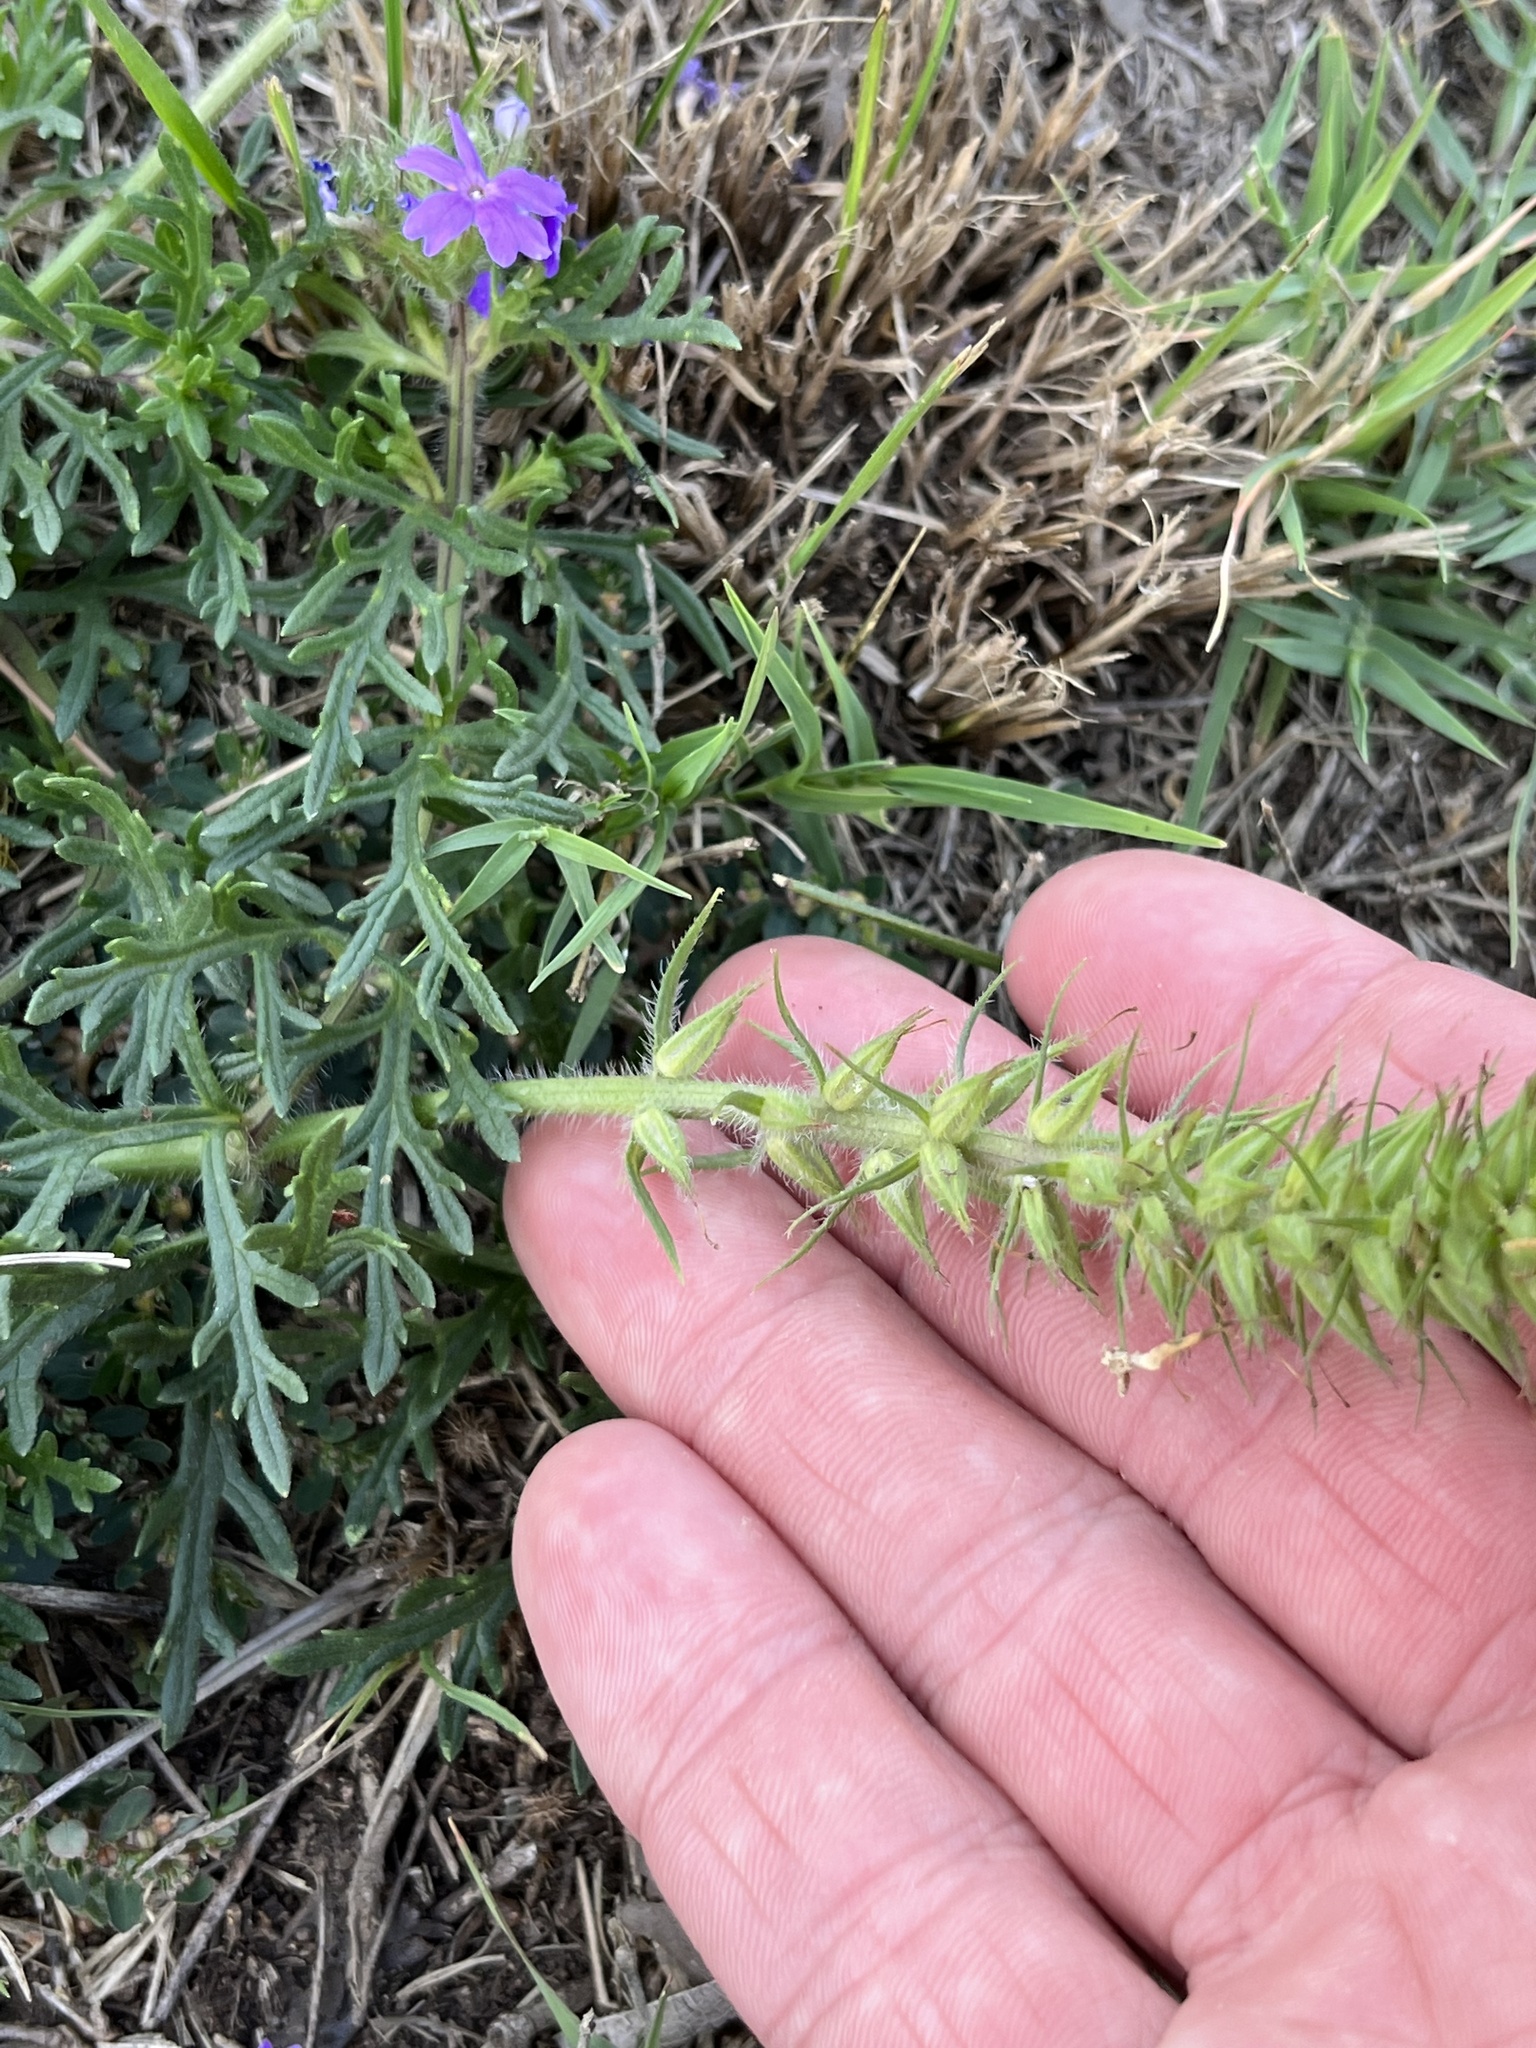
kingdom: Plantae
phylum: Tracheophyta
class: Magnoliopsida
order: Lamiales
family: Verbenaceae
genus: Verbena
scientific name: Verbena bipinnatifida
